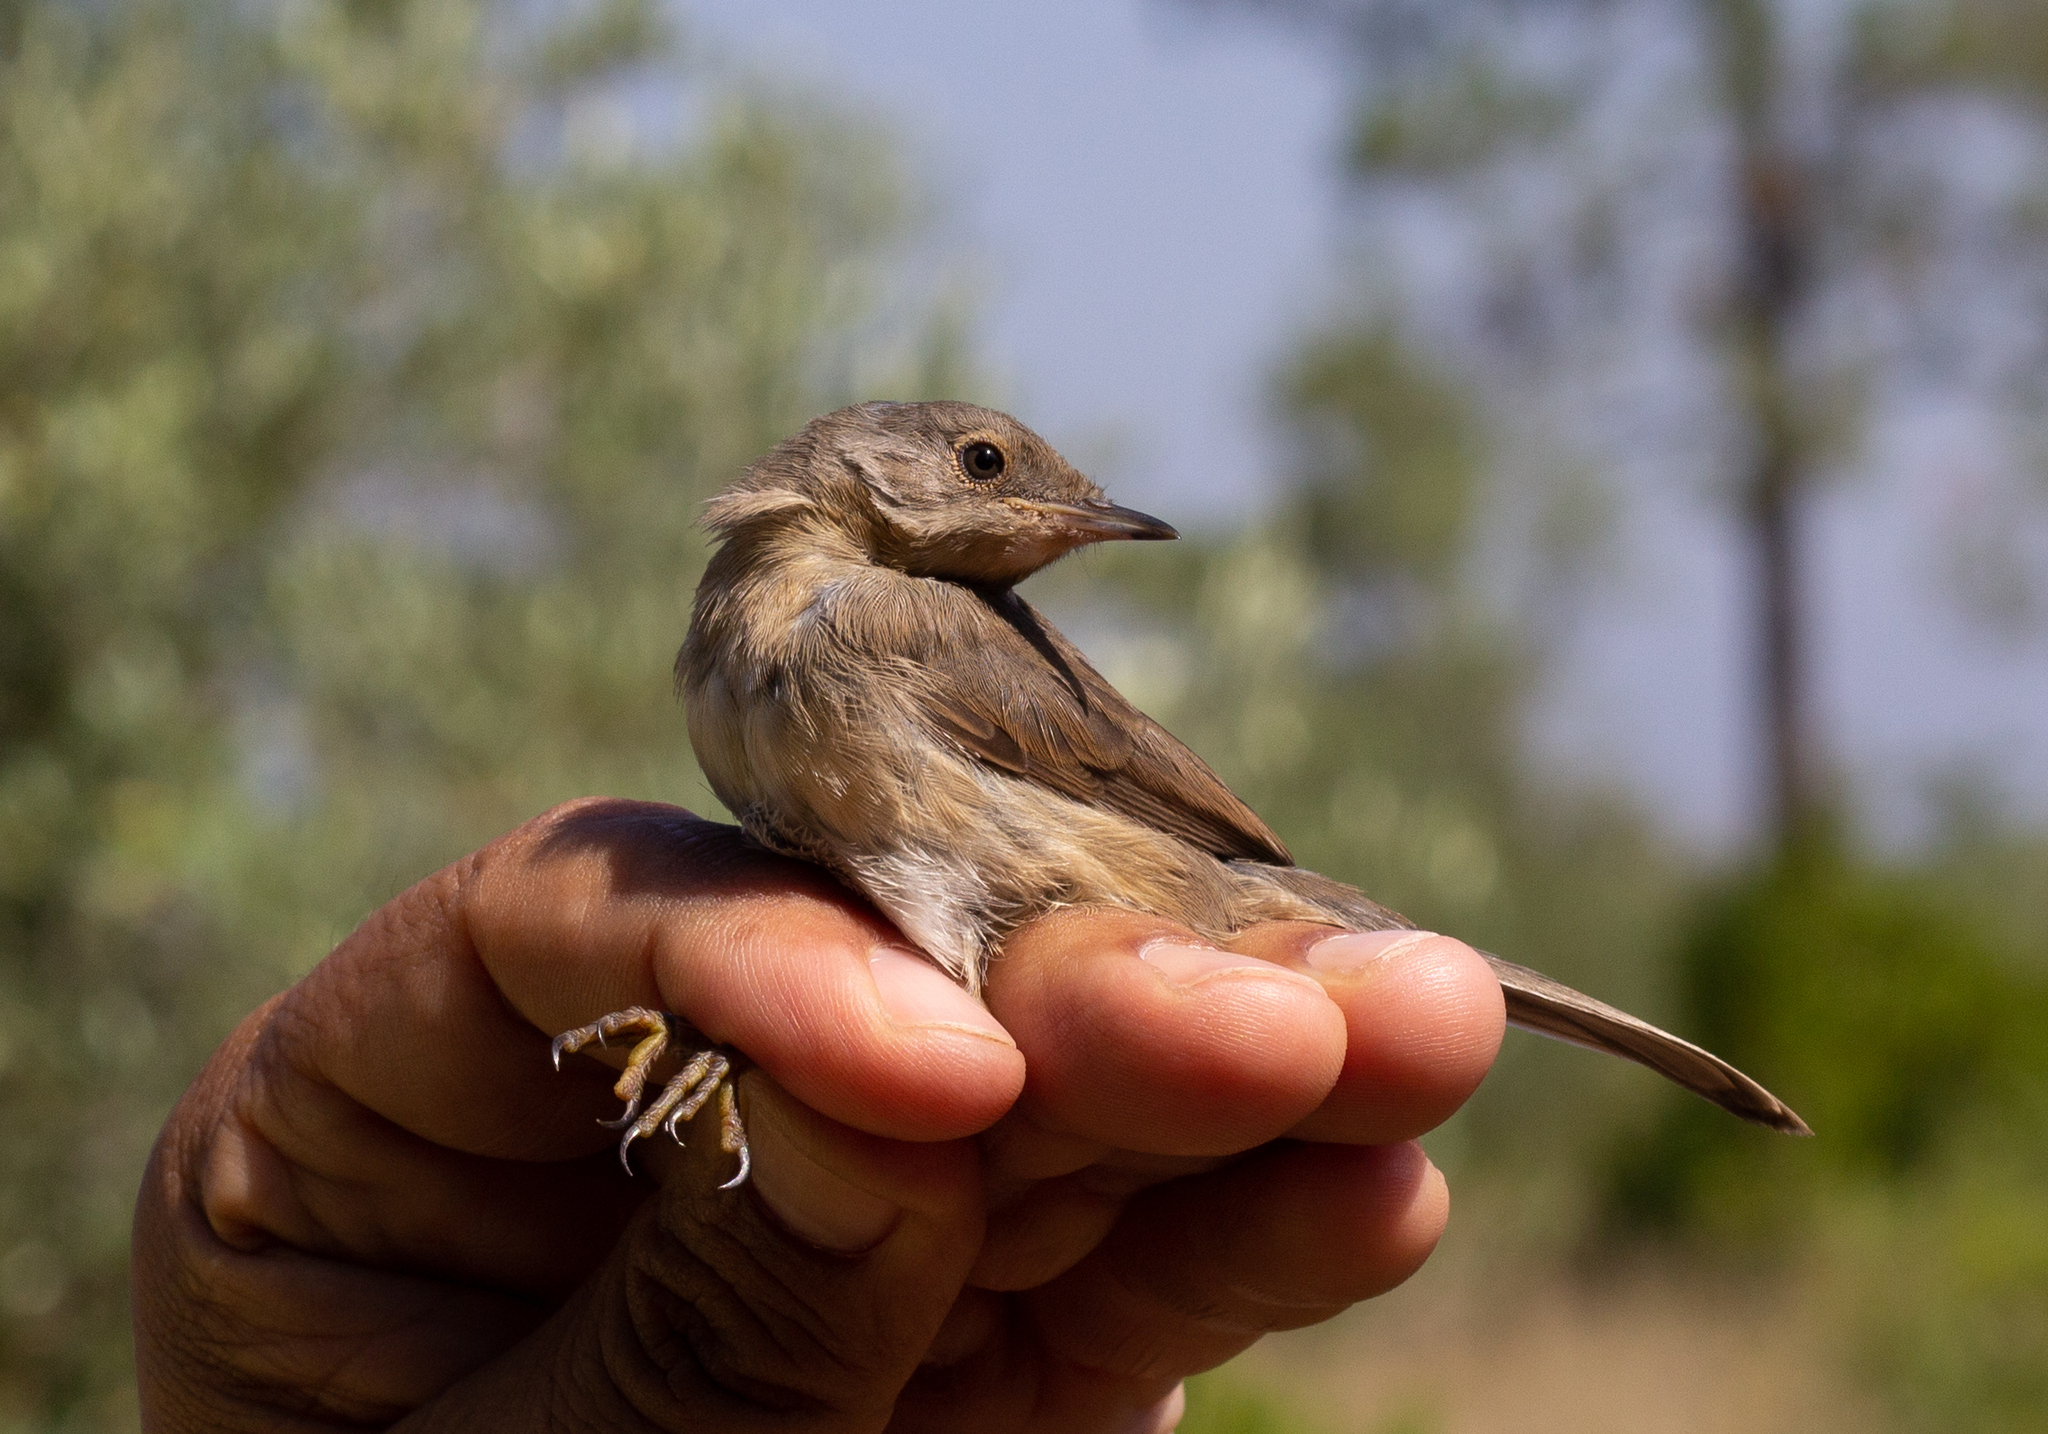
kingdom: Animalia
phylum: Chordata
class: Aves
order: Passeriformes
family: Sylviidae
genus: Sylvia
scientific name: Sylvia undata
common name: Dartford warbler
